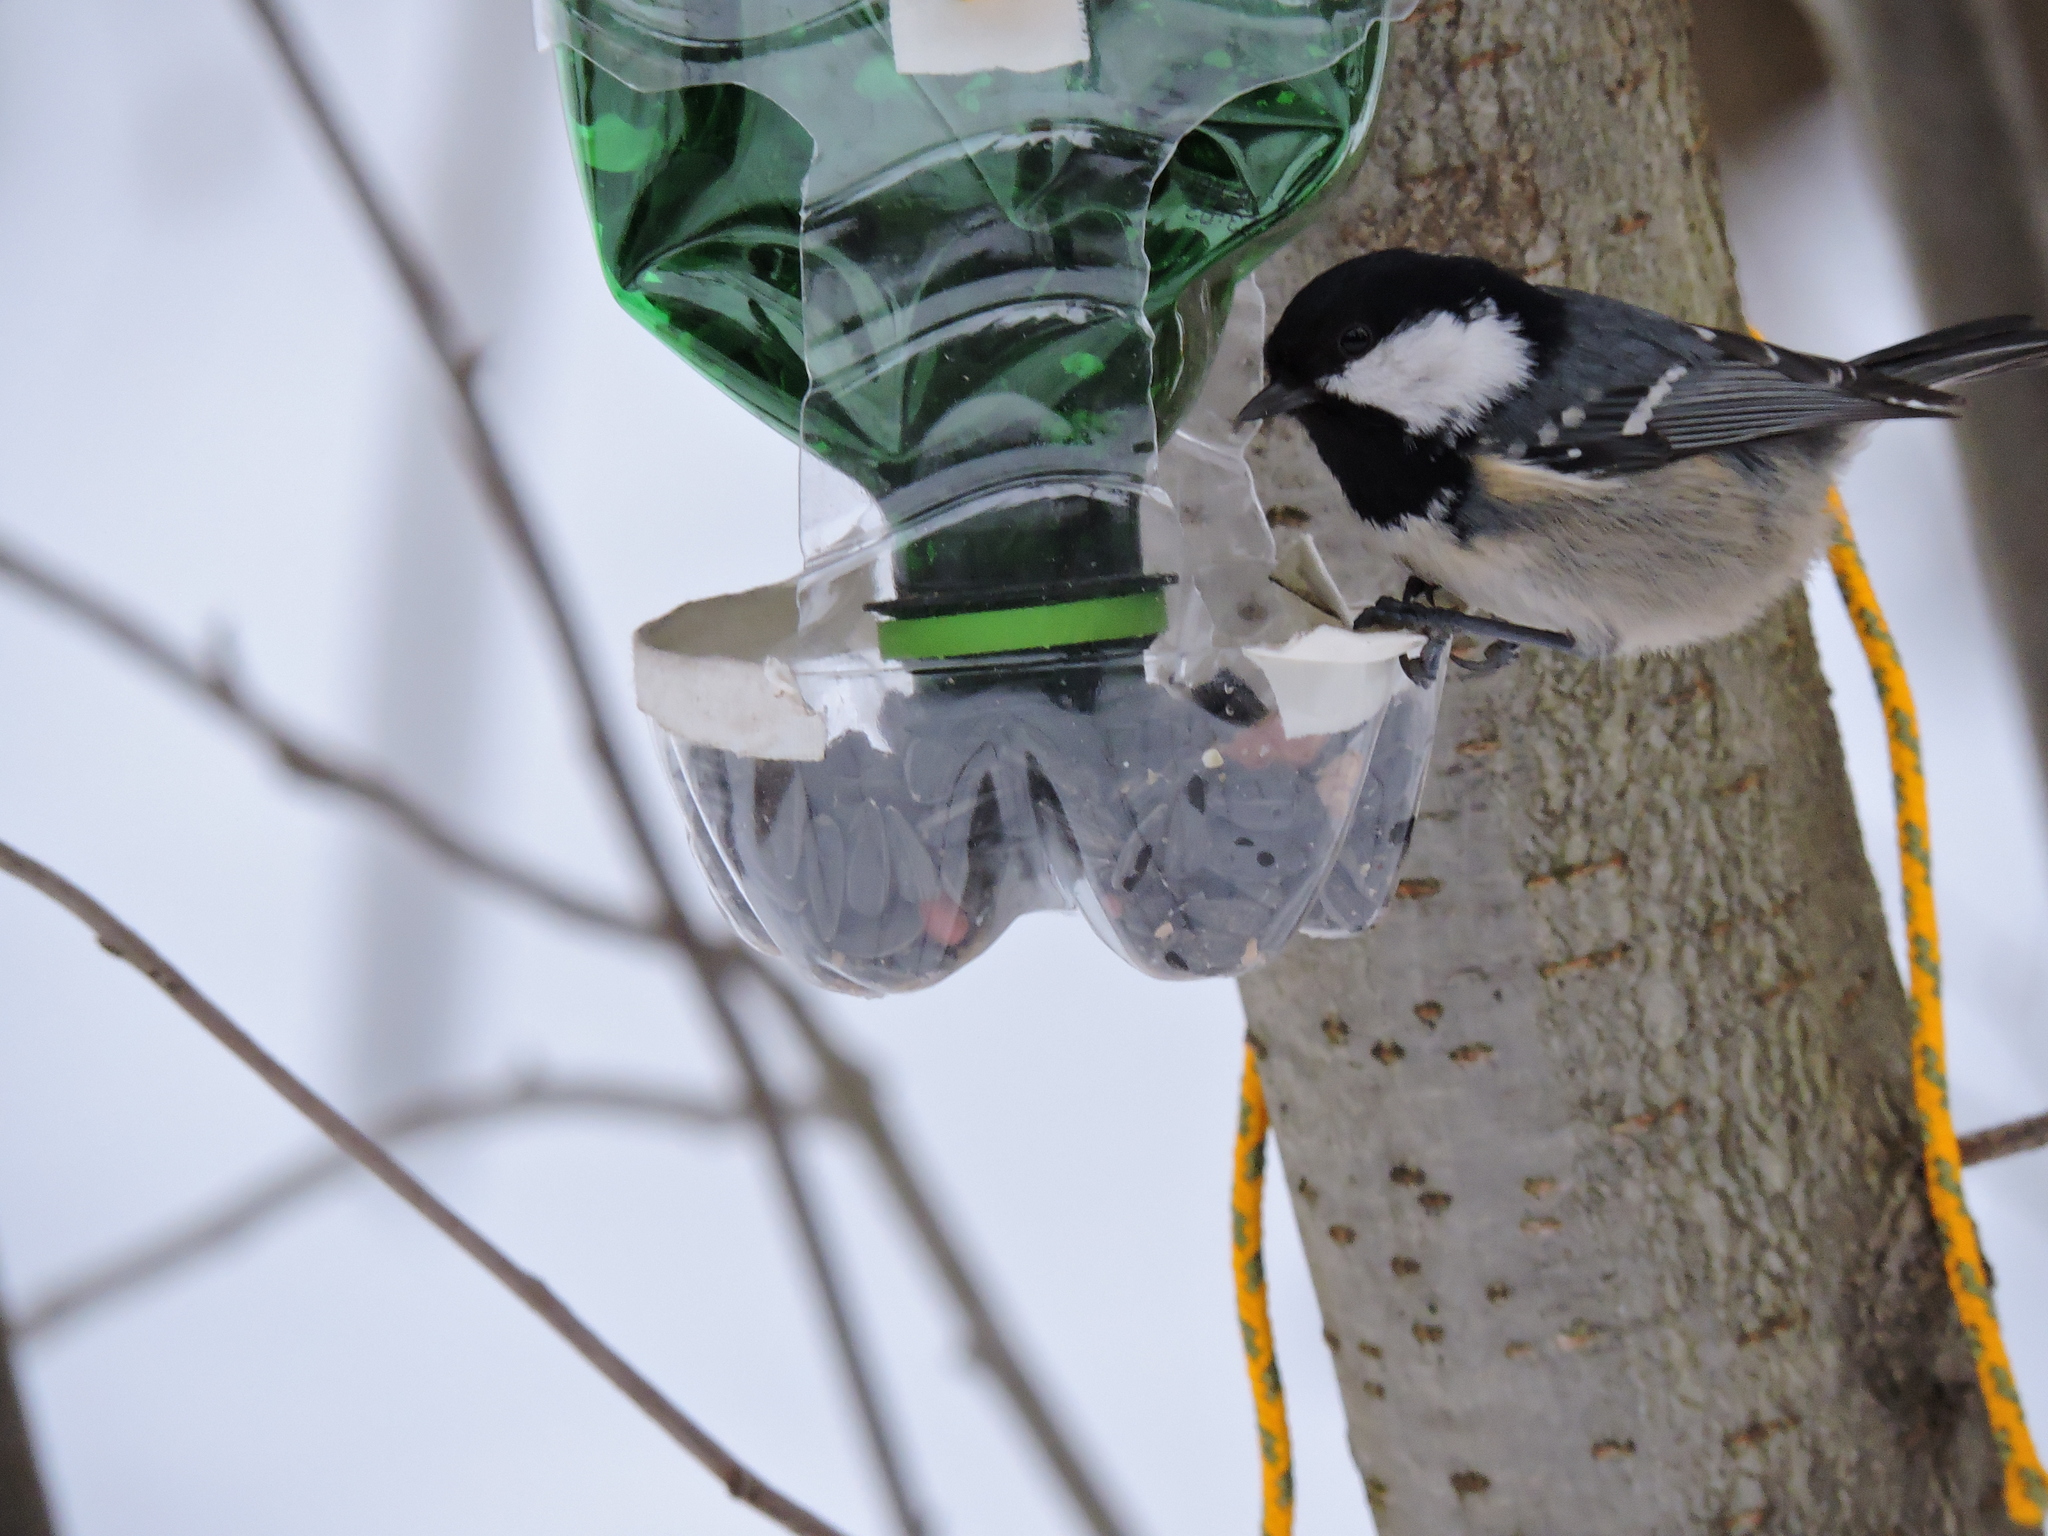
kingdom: Animalia
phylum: Chordata
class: Aves
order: Passeriformes
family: Paridae
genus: Periparus
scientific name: Periparus ater
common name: Coal tit
